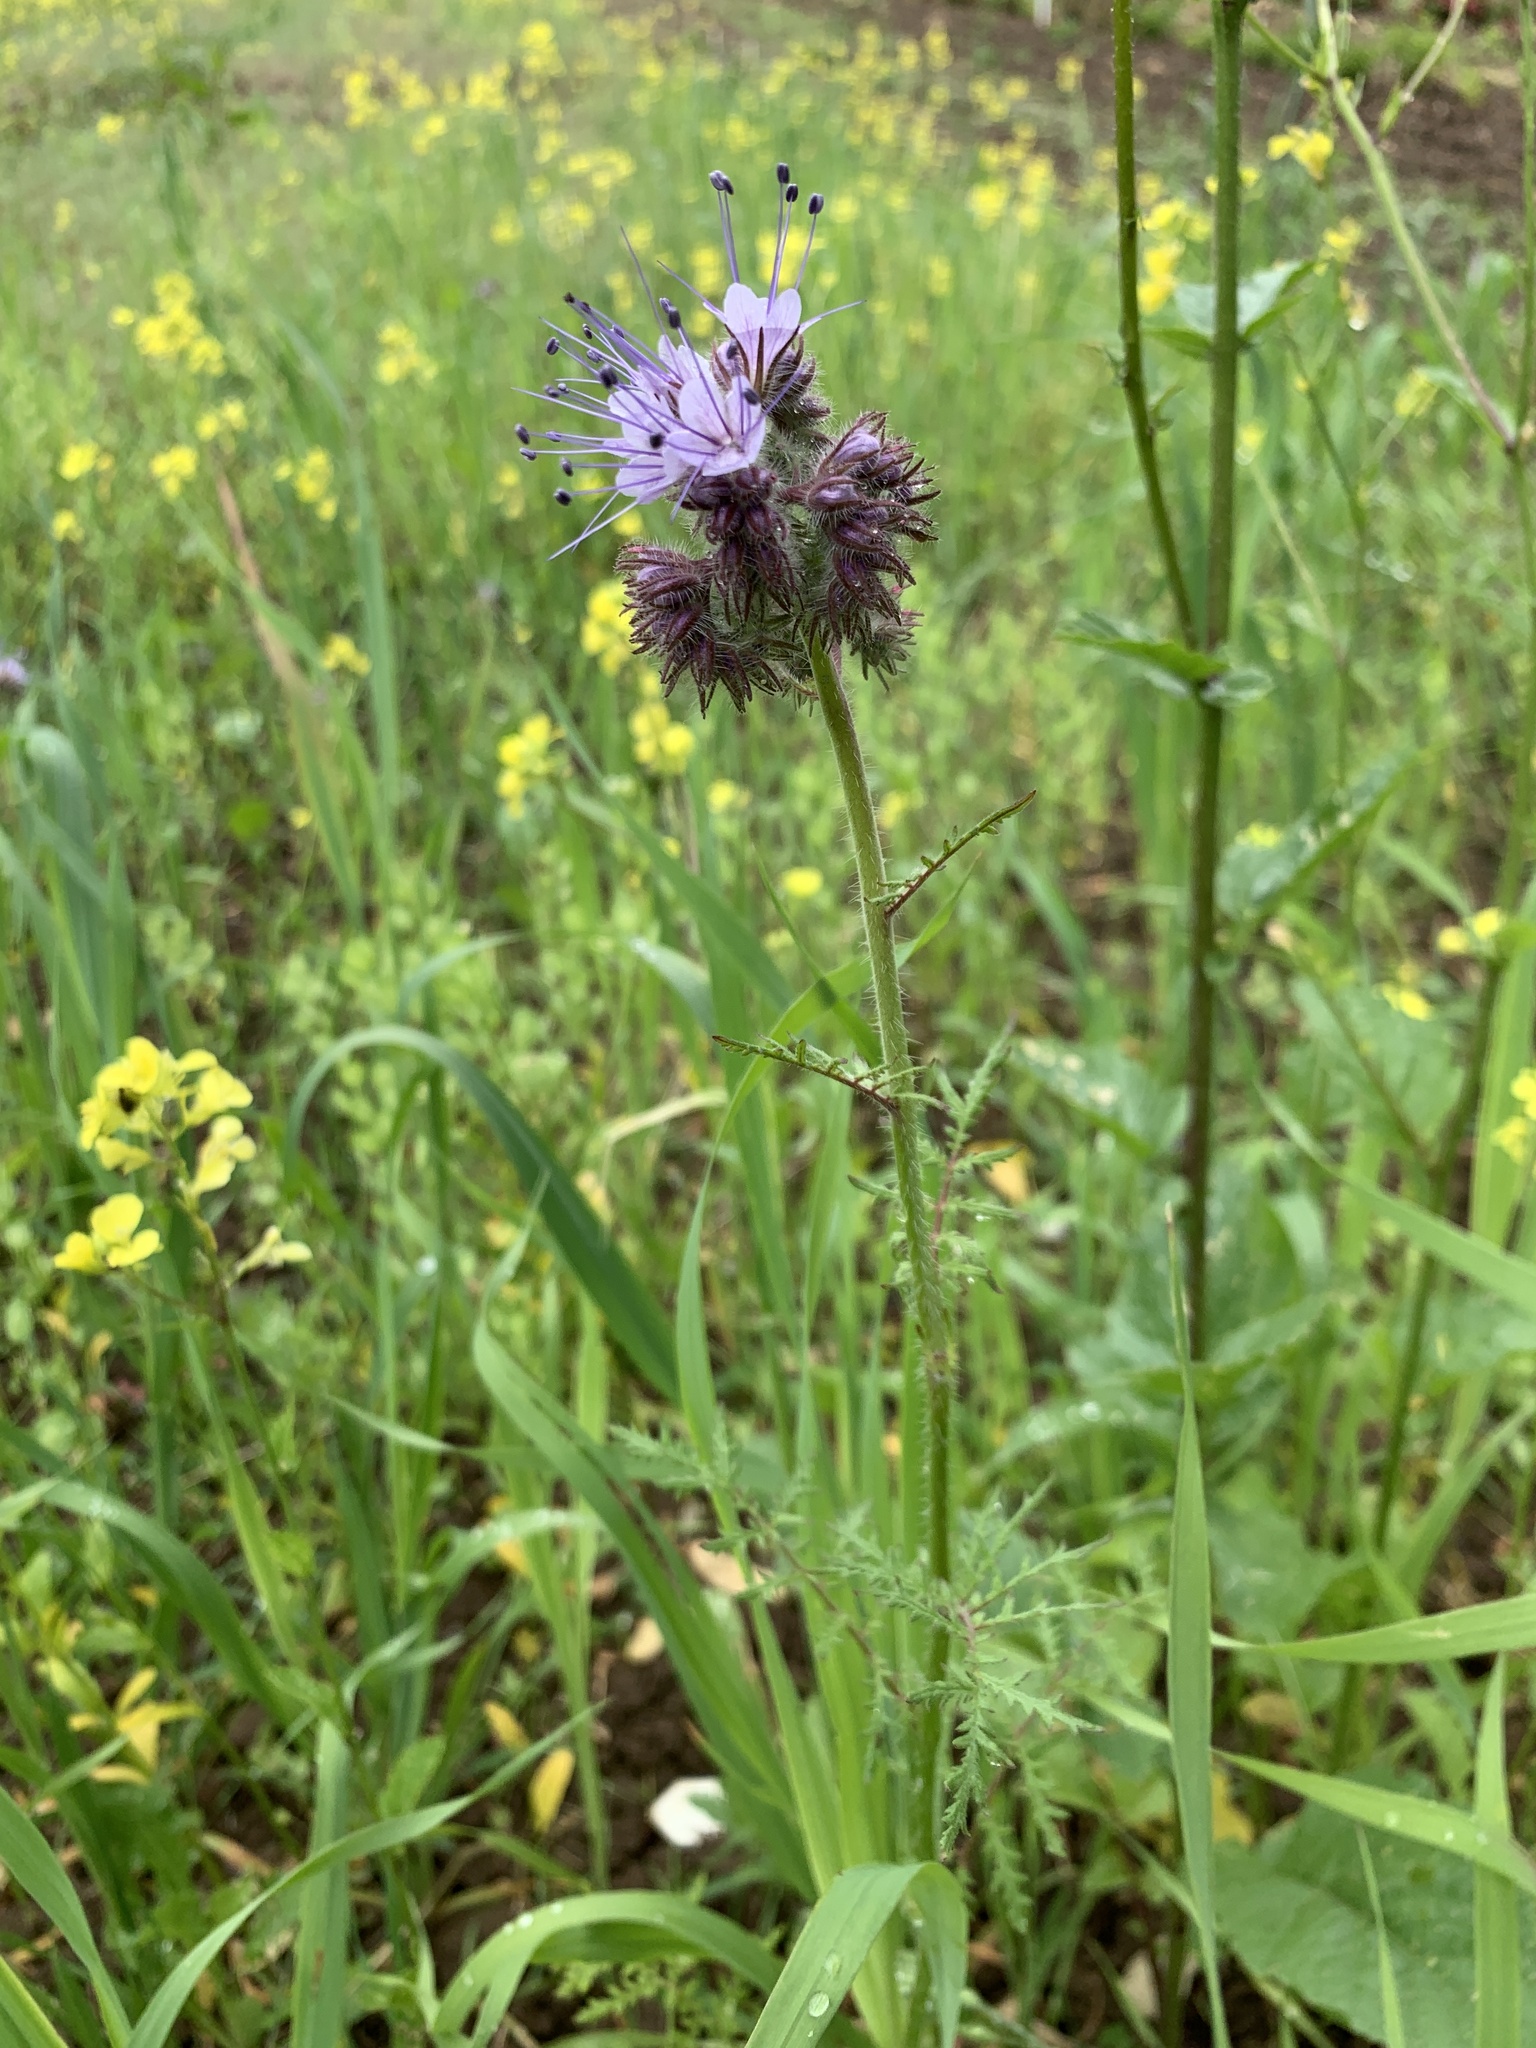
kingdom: Plantae
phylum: Tracheophyta
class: Magnoliopsida
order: Boraginales
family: Hydrophyllaceae
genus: Phacelia
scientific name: Phacelia tanacetifolia
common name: Phacelia
